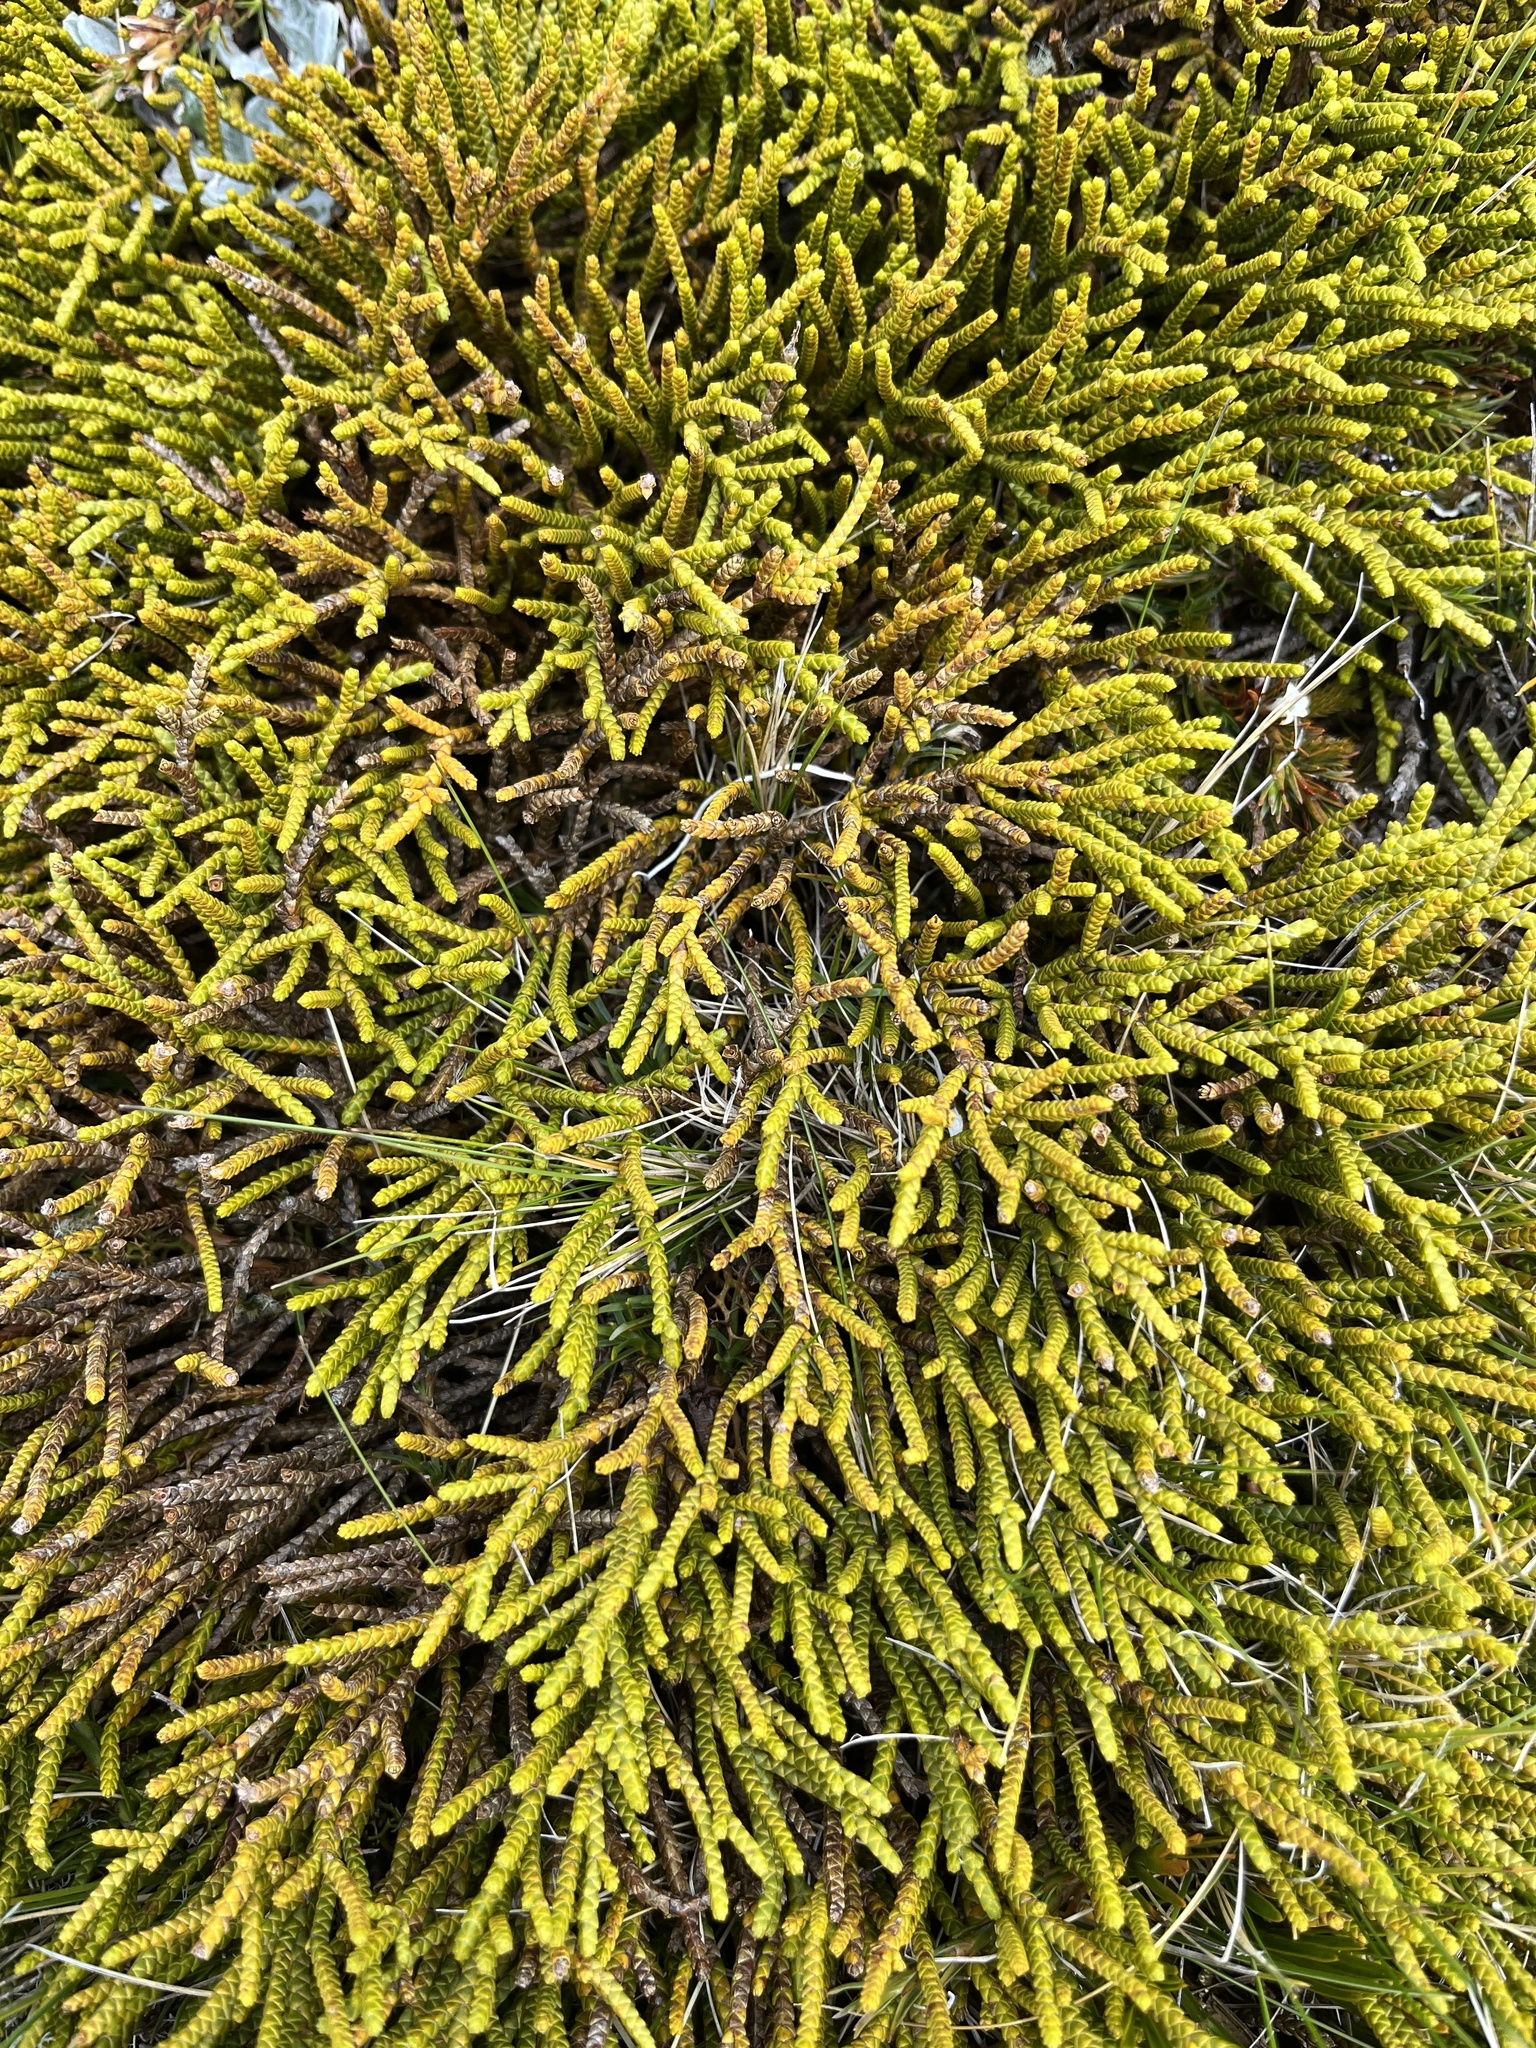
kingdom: Plantae
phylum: Tracheophyta
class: Magnoliopsida
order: Lamiales
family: Plantaginaceae
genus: Veronica
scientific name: Veronica lycopodioides
